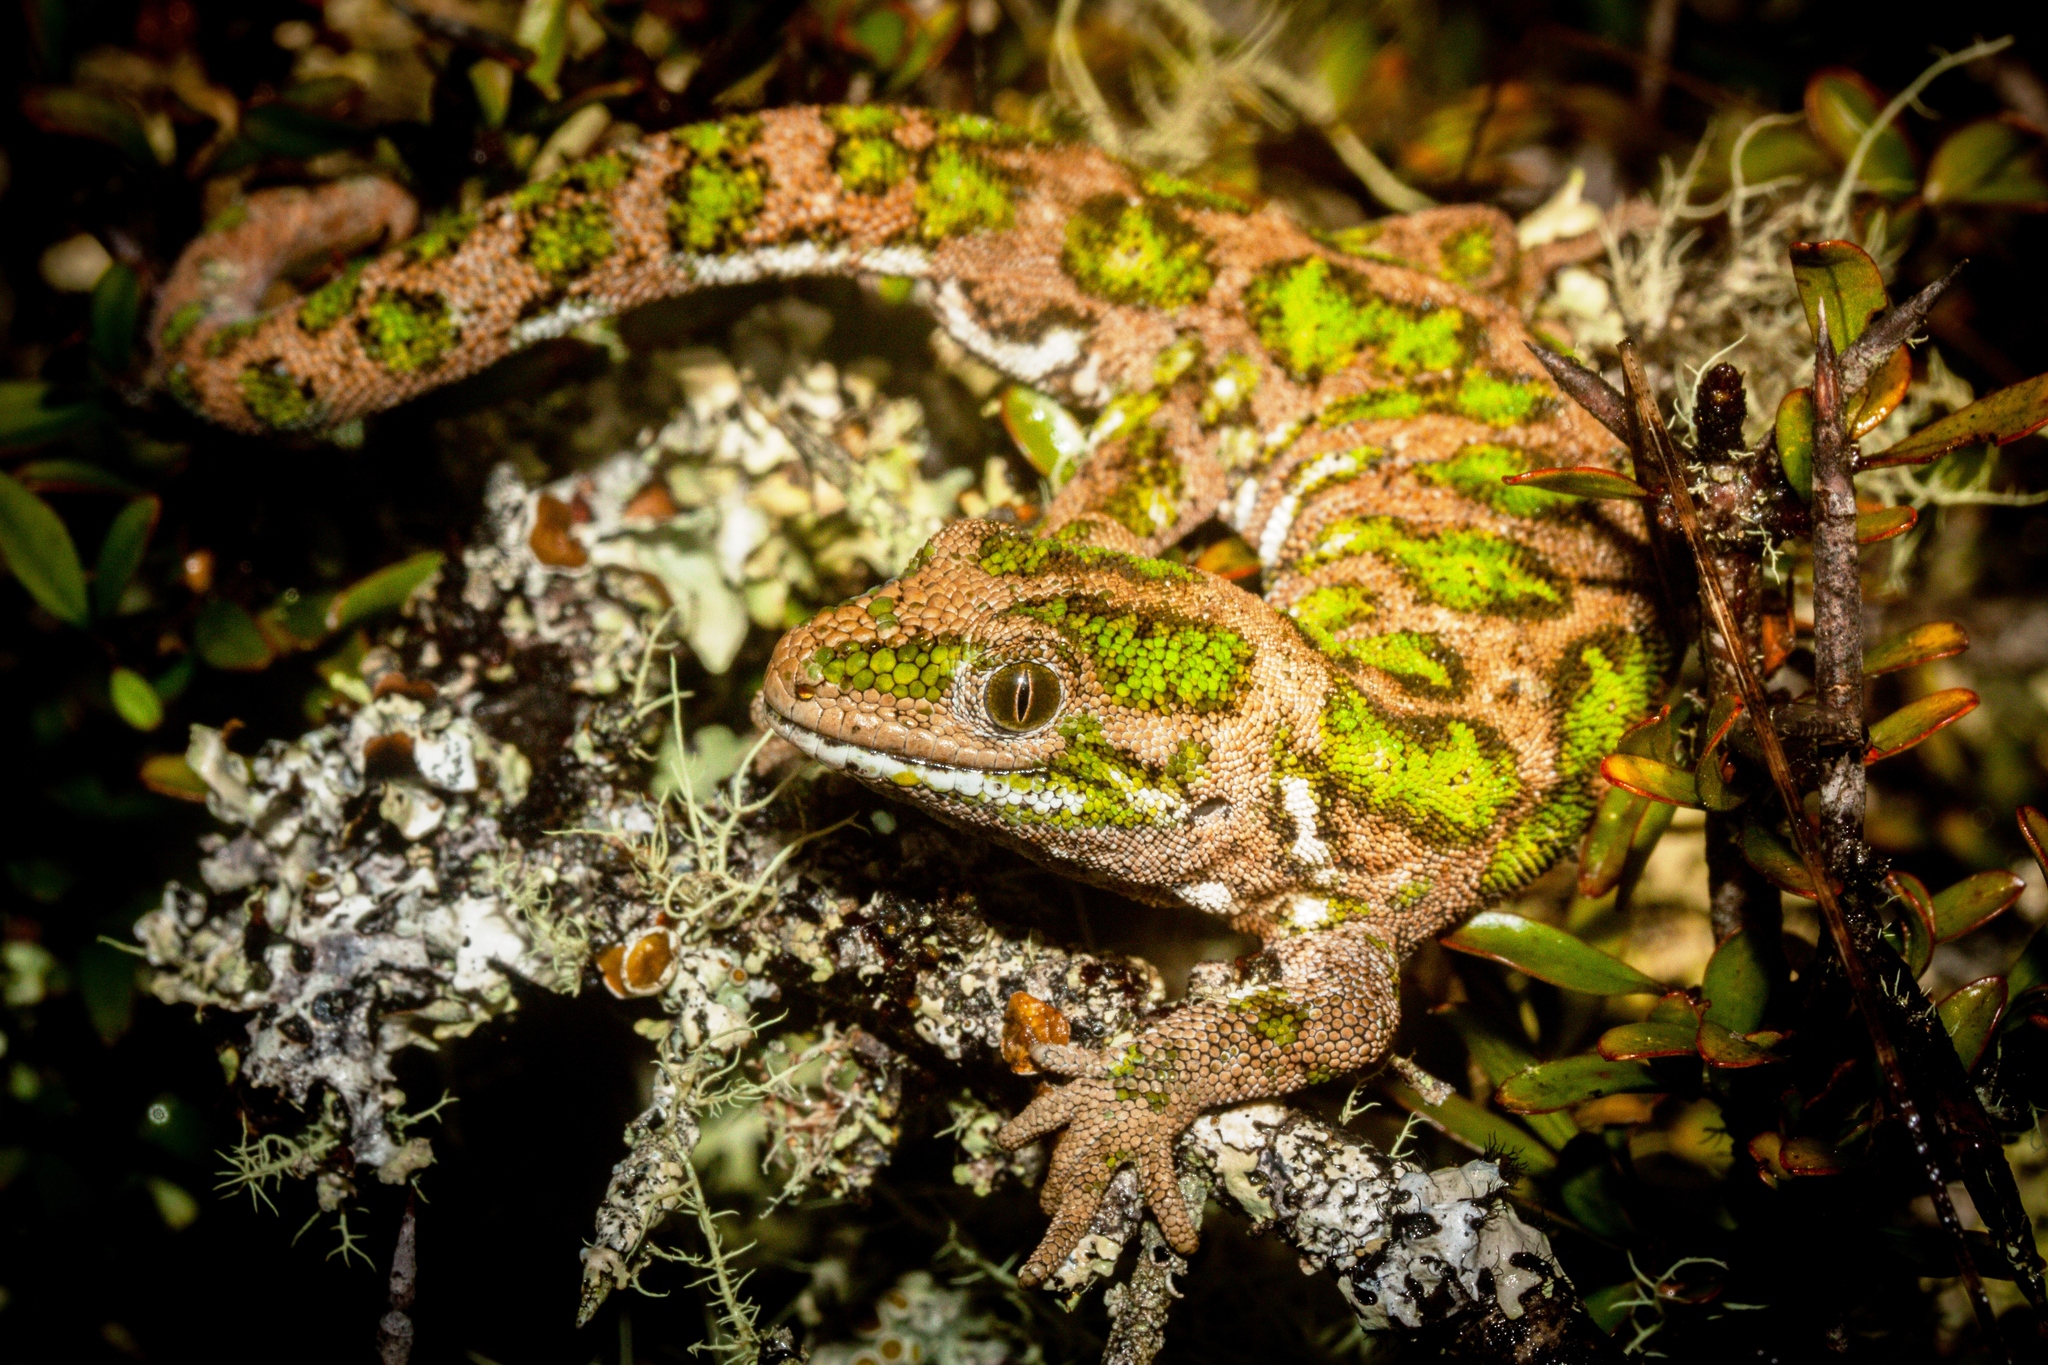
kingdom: Animalia
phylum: Chordata
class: Squamata
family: Diplodactylidae
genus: Naultinus
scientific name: Naultinus stellatus
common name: Nelson green gecko
